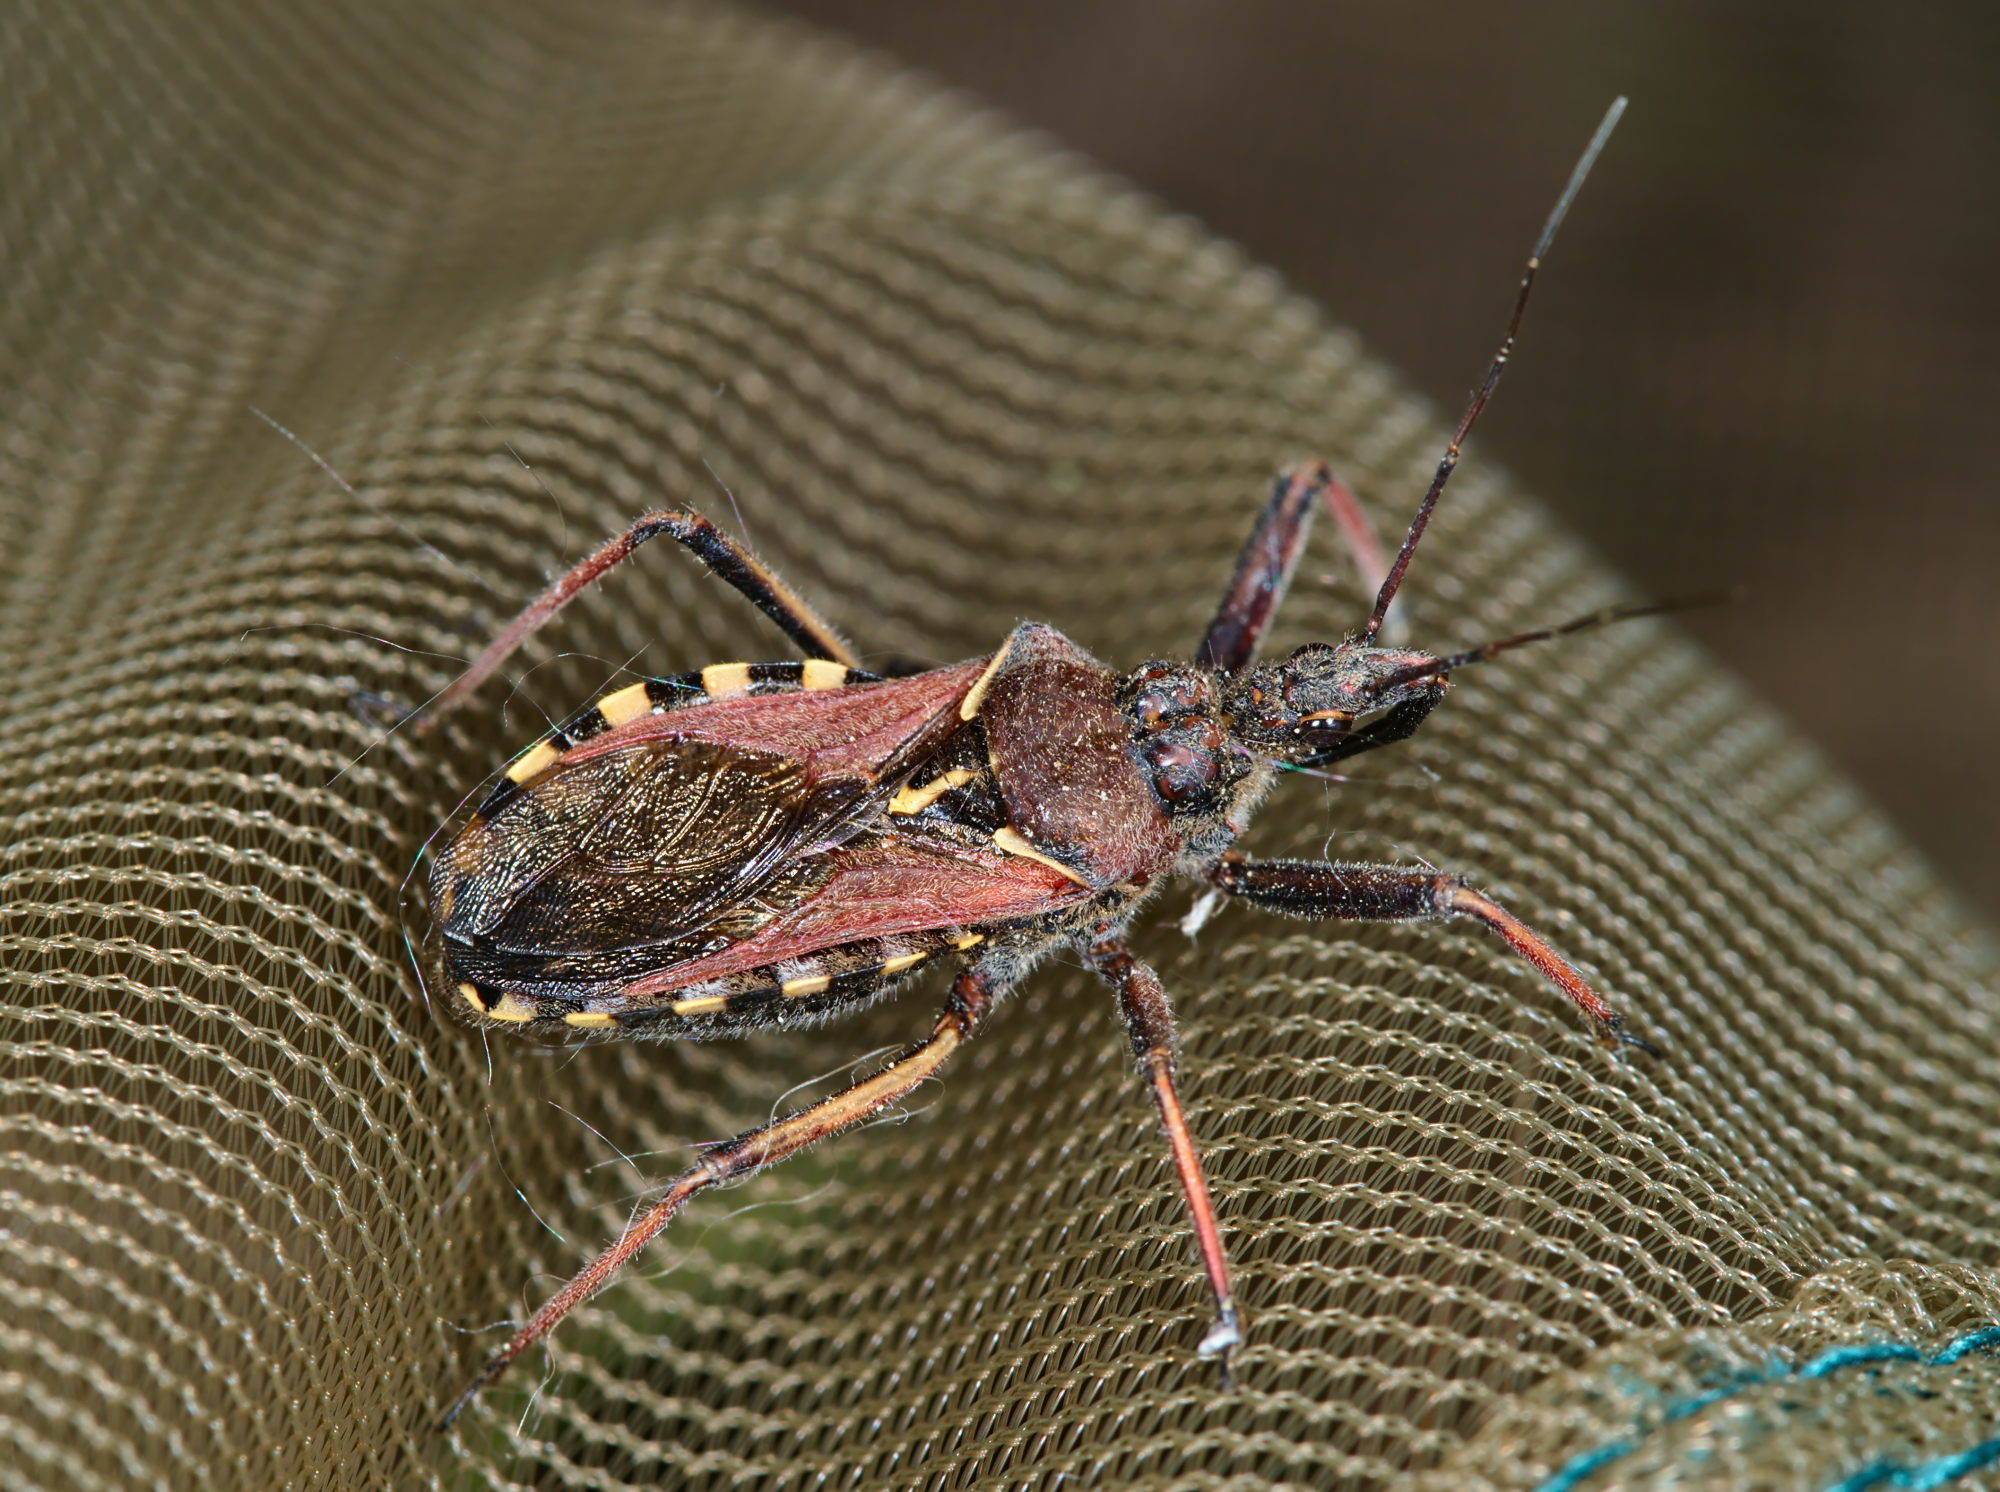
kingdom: Animalia
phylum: Arthropoda
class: Insecta
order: Hemiptera
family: Reduviidae
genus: Rhynocoris
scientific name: Rhynocoris erythropus
